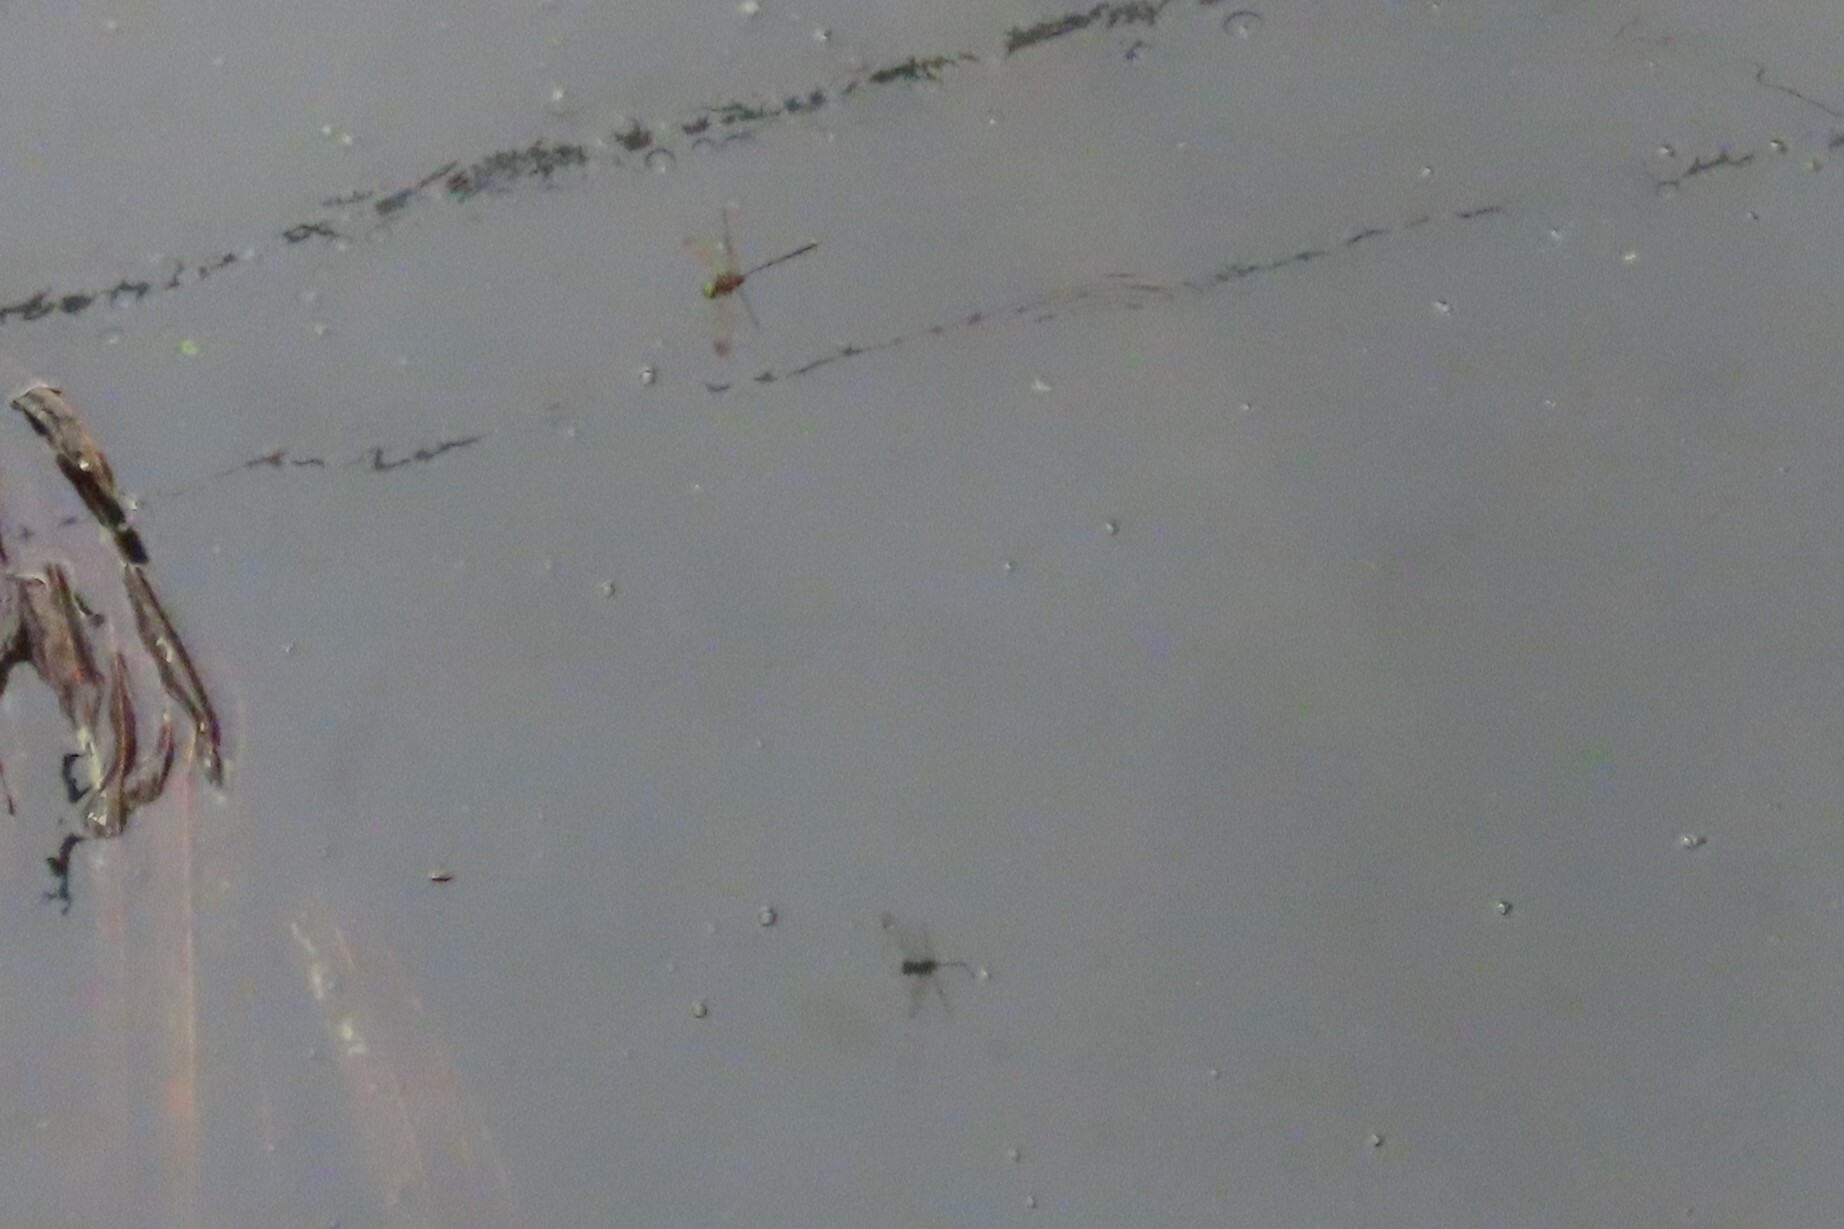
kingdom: Animalia
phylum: Arthropoda
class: Insecta
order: Odonata
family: Libellulidae
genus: Zyxomma
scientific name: Zyxomma petiolatum
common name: Dingy dusk-darter
